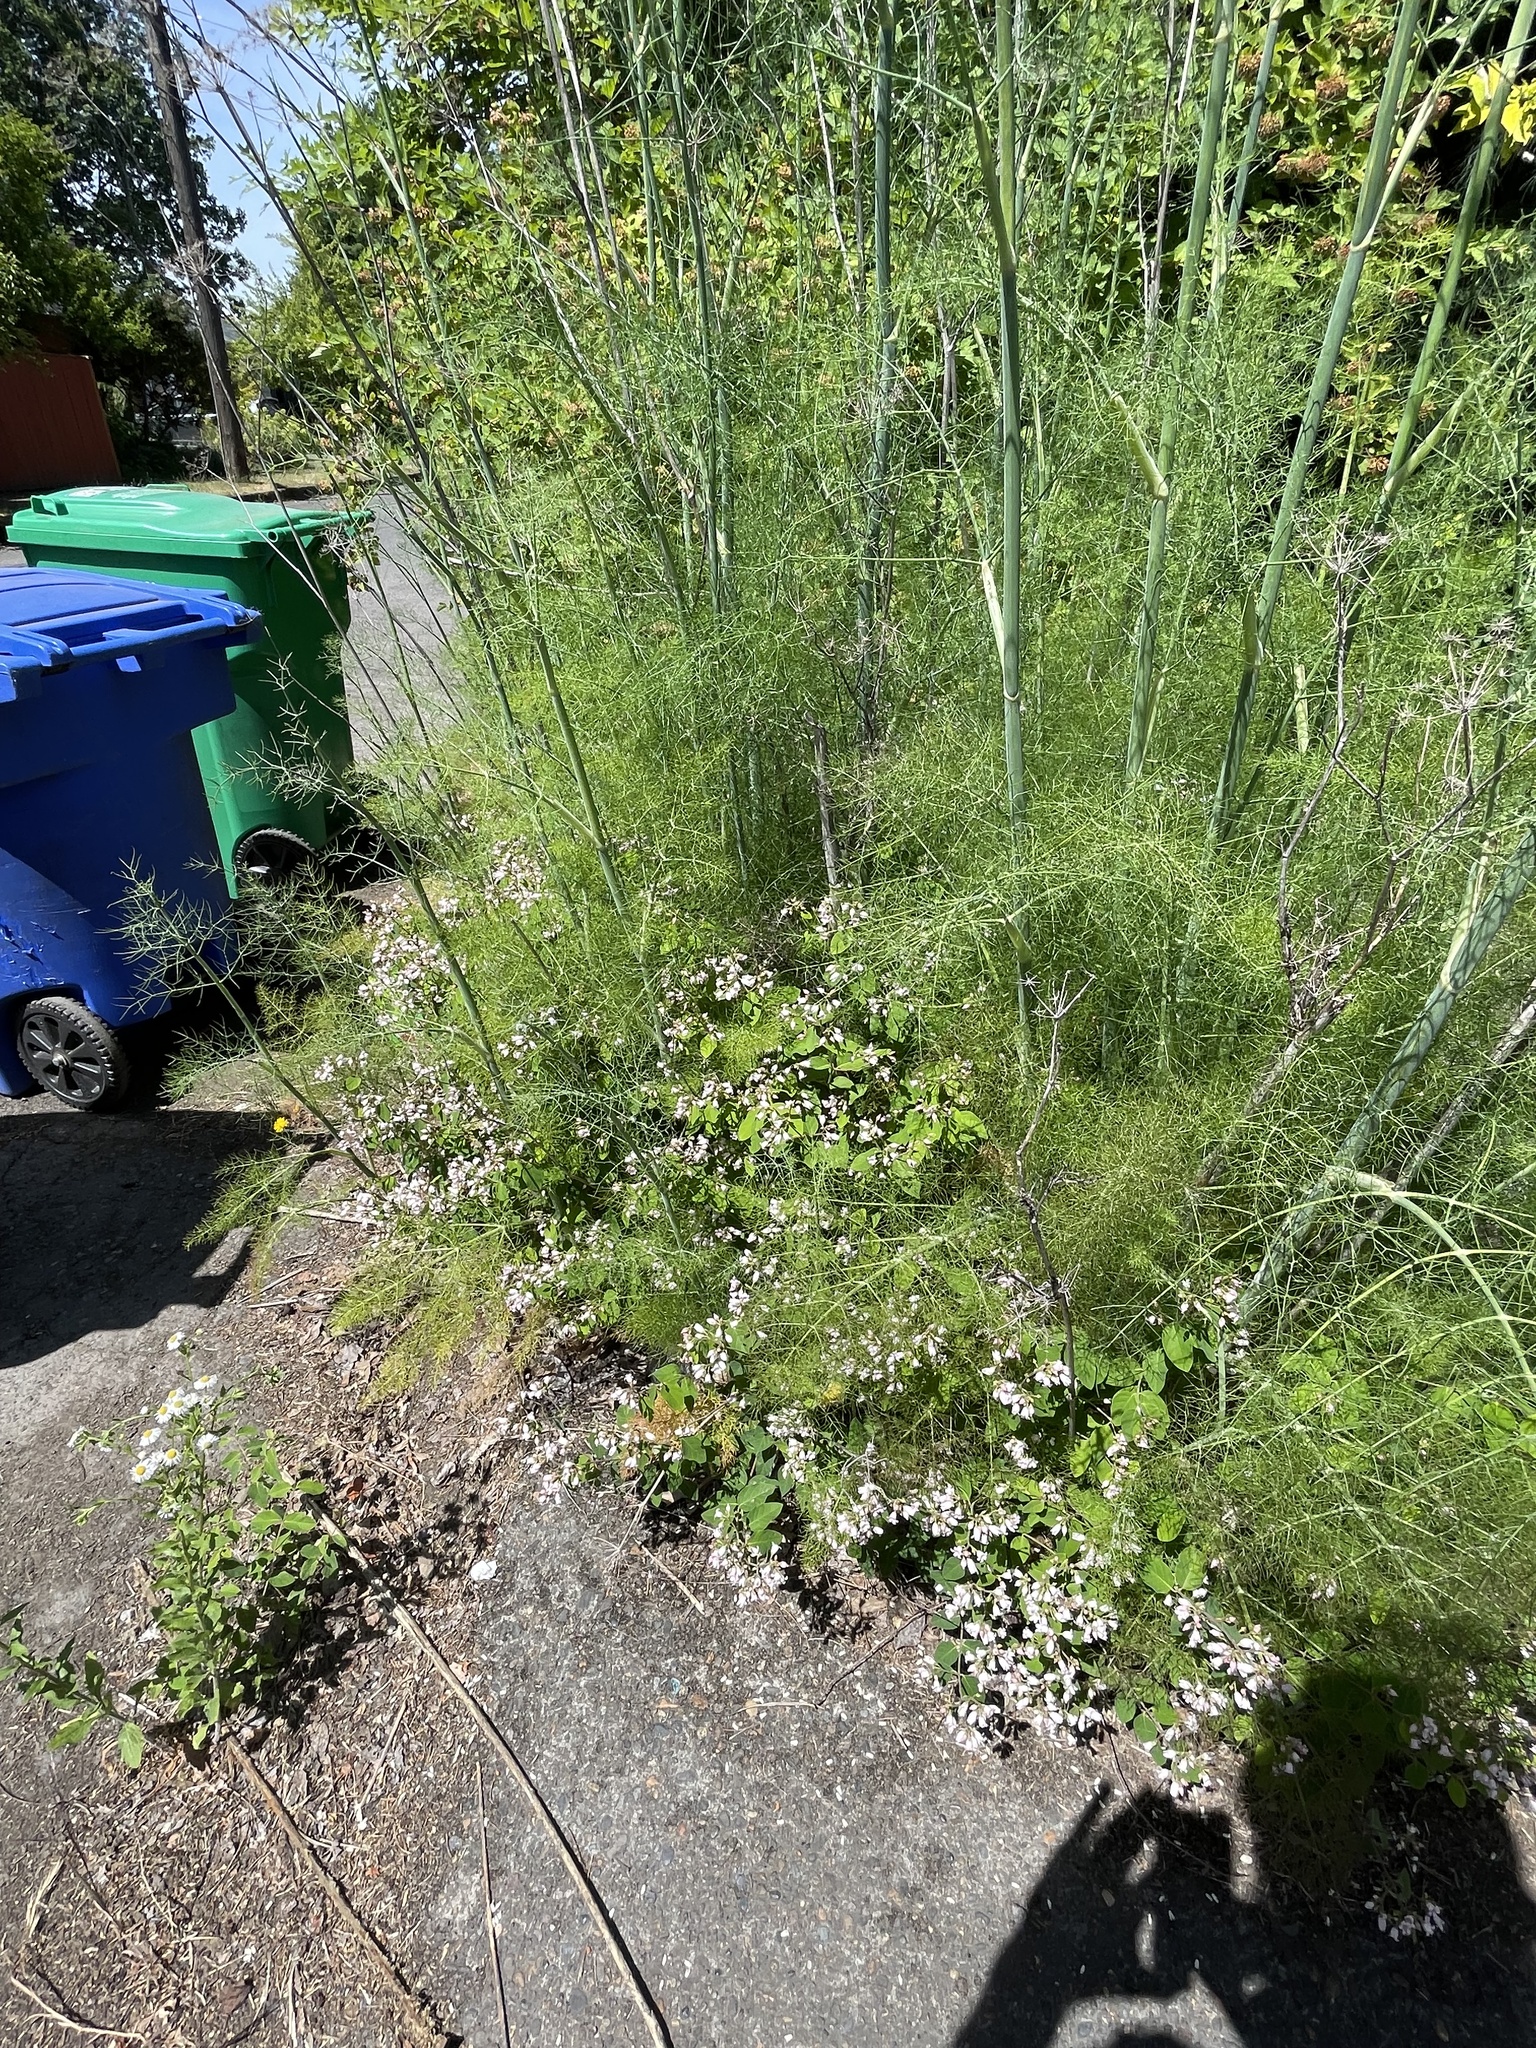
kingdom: Plantae
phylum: Tracheophyta
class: Magnoliopsida
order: Gentianales
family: Apocynaceae
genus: Apocynum
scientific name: Apocynum androsaemifolium
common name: Spreading dogbane
